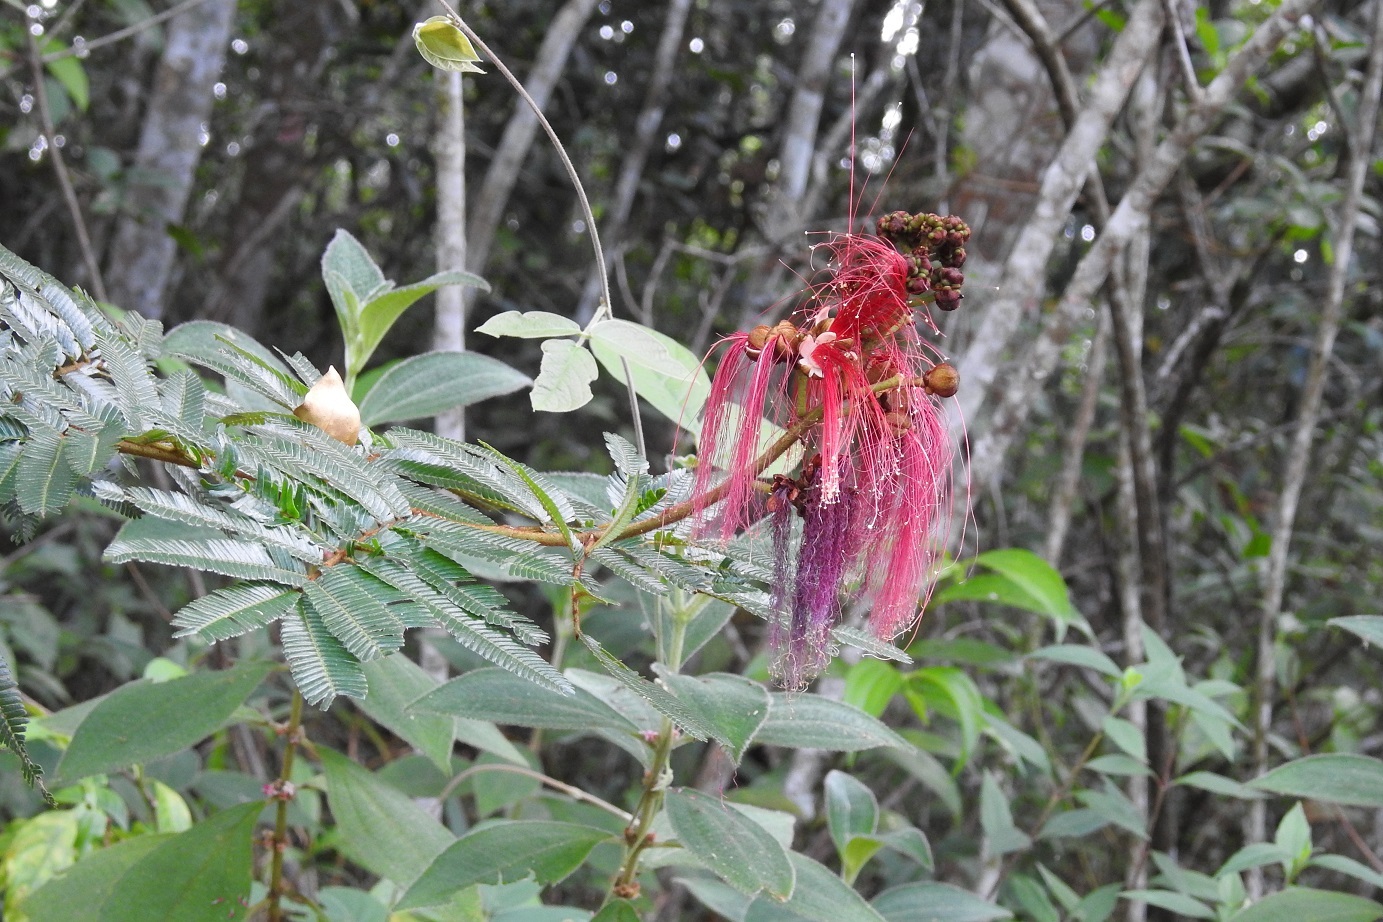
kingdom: Plantae
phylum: Tracheophyta
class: Magnoliopsida
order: Fabales
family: Fabaceae
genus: Calliandra
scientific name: Calliandra houstoniana
